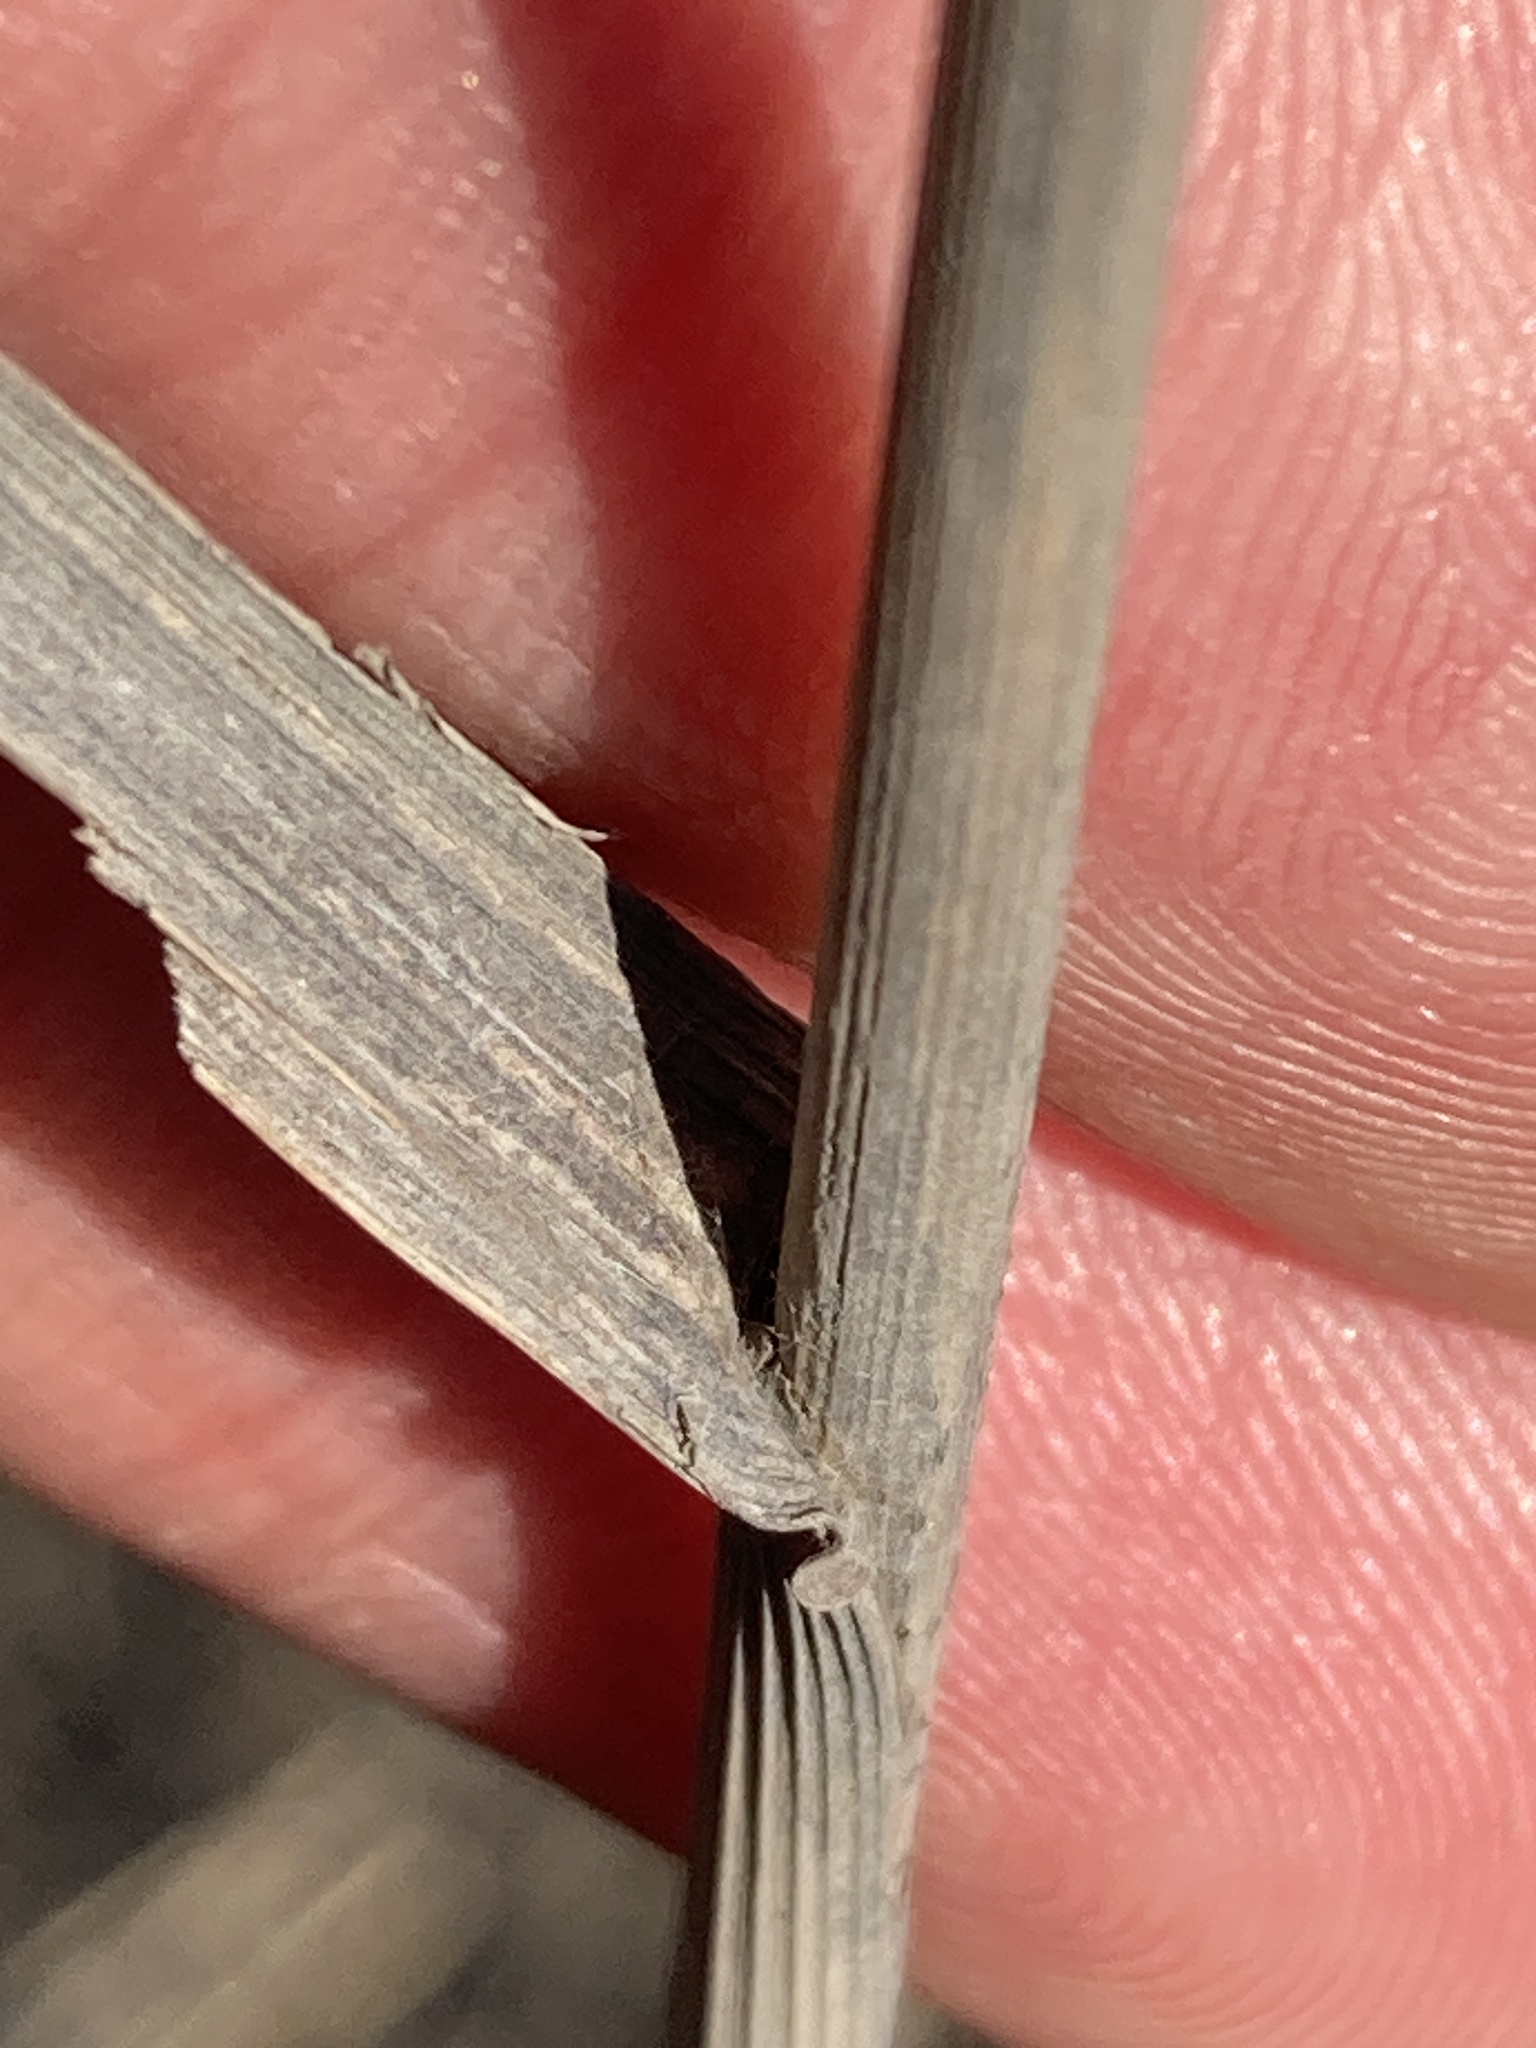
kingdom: Plantae
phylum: Tracheophyta
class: Liliopsida
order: Poales
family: Poaceae
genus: Bromus
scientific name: Bromus inermis
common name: Smooth brome
